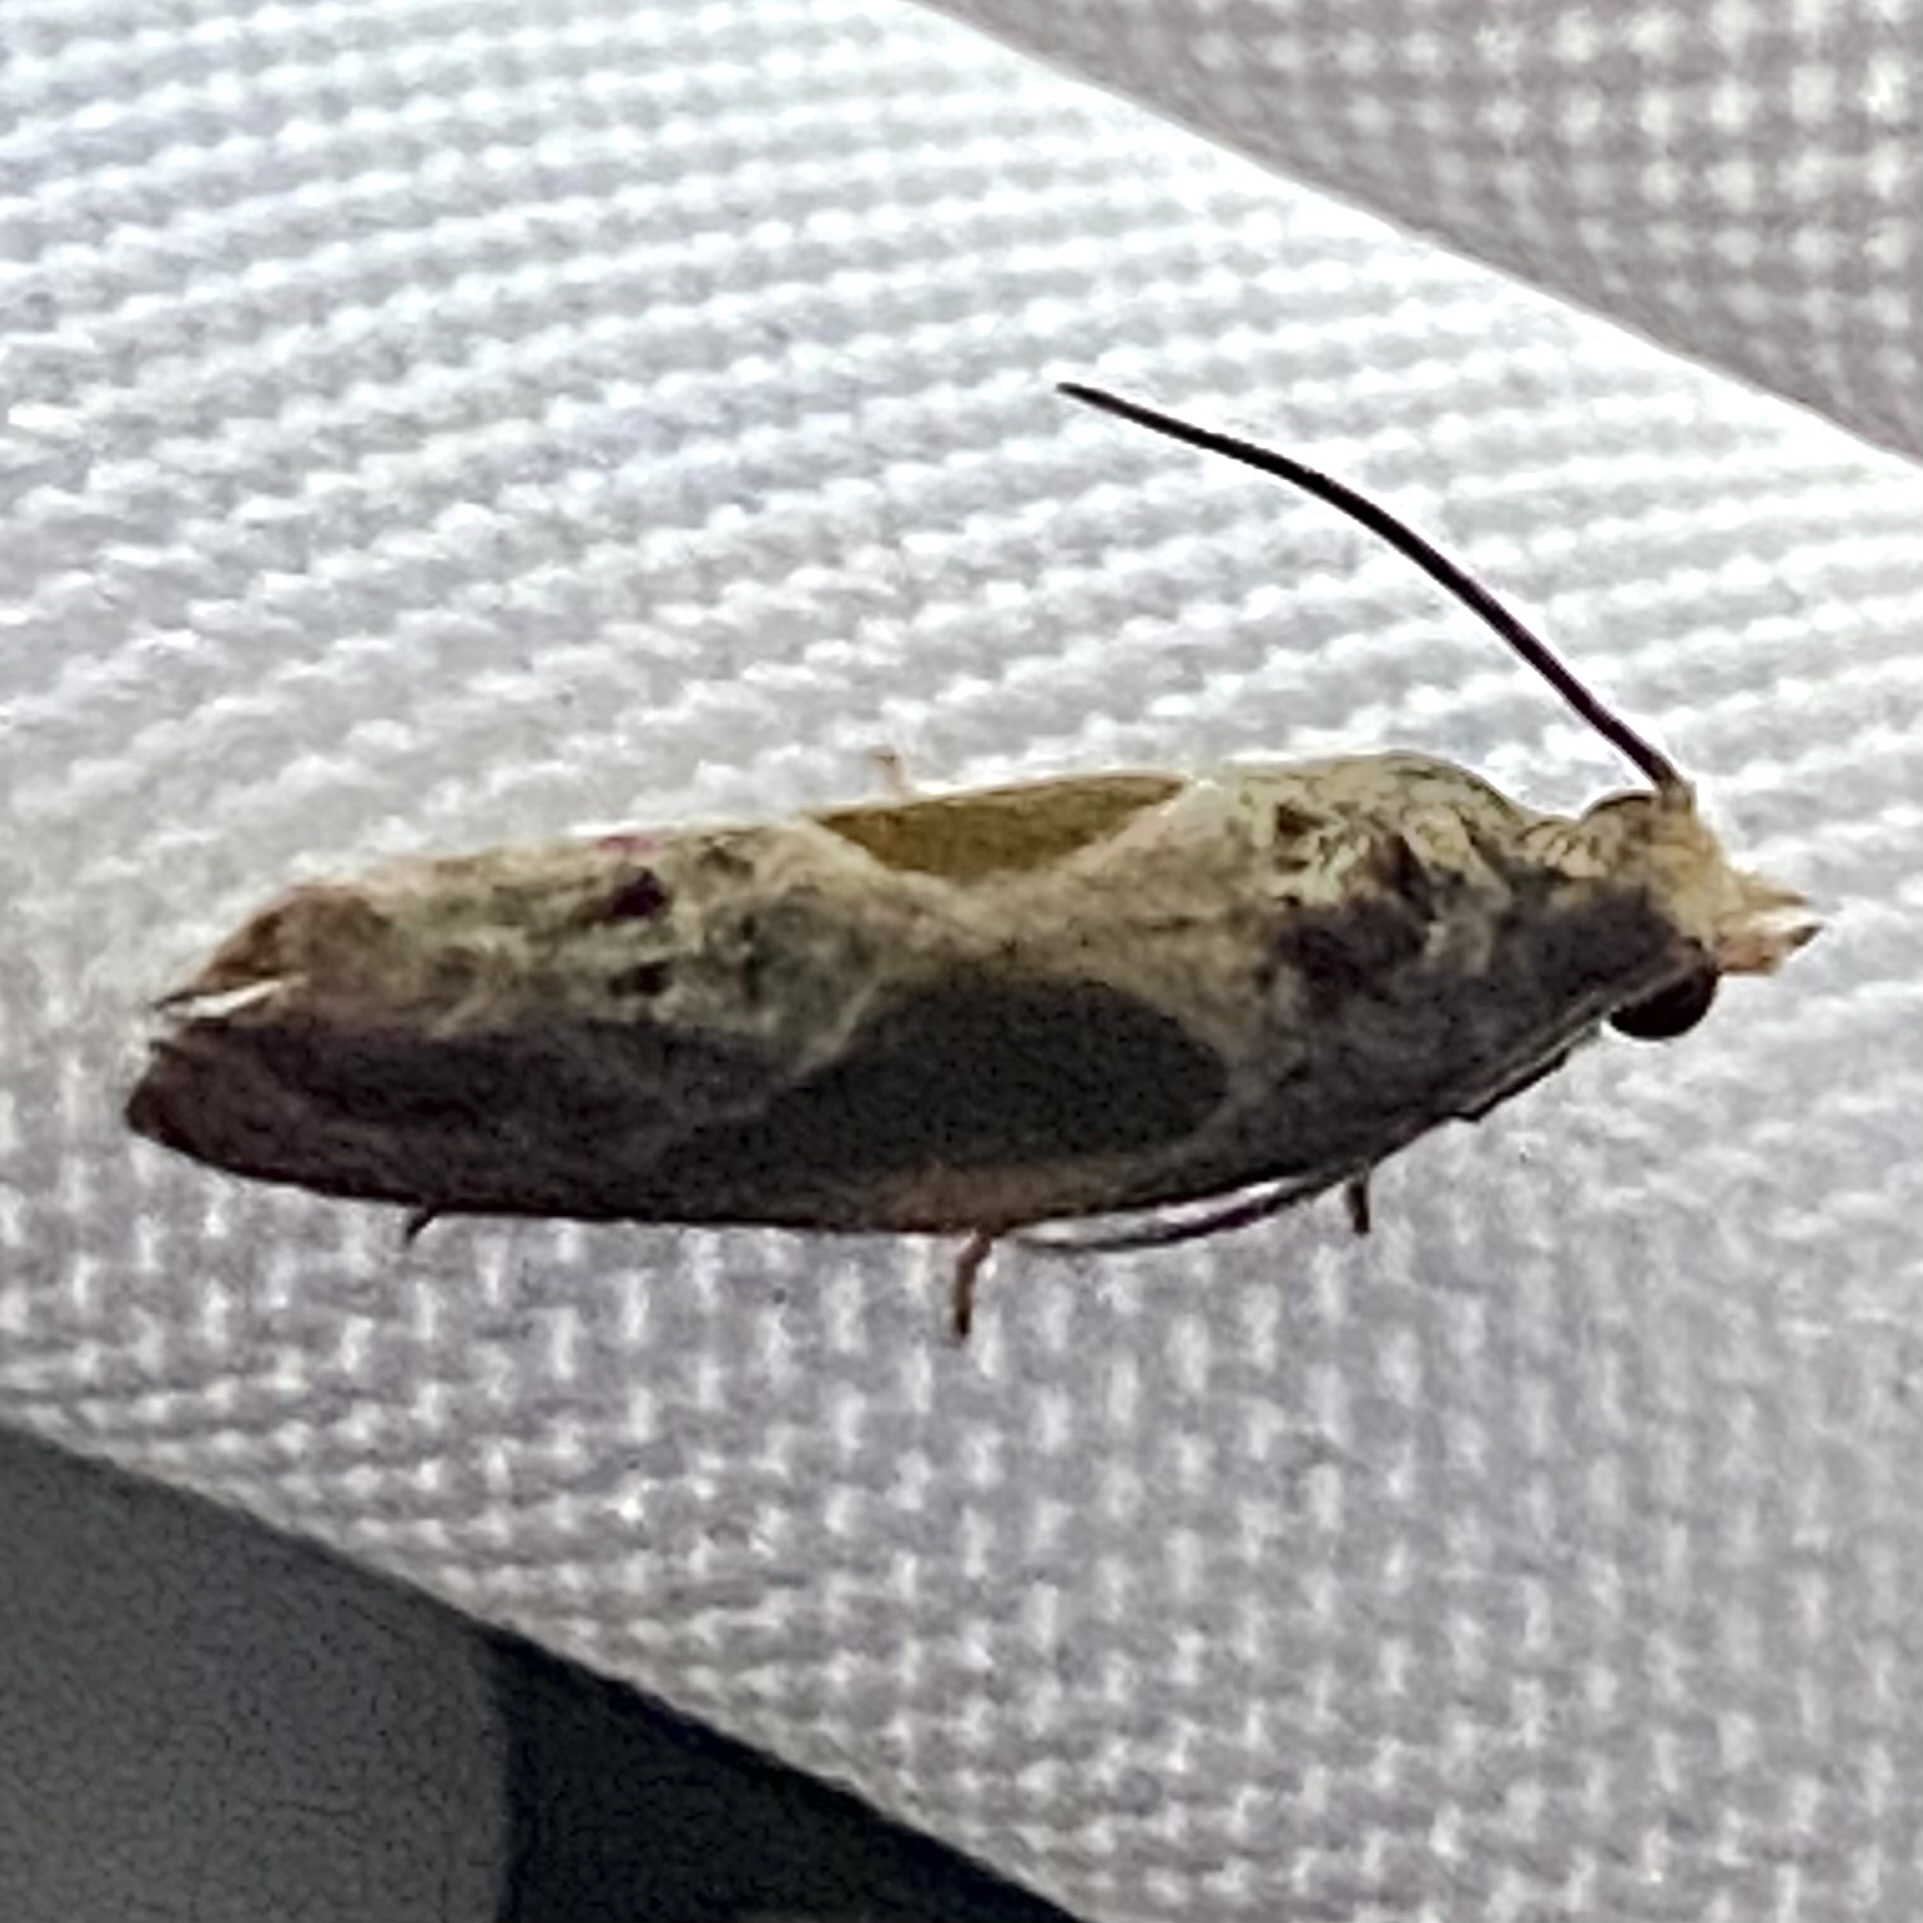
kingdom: Animalia
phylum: Arthropoda
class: Insecta
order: Lepidoptera
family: Tortricidae
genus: Eumarozia
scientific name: Eumarozia malachitana
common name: Sculptured moth
